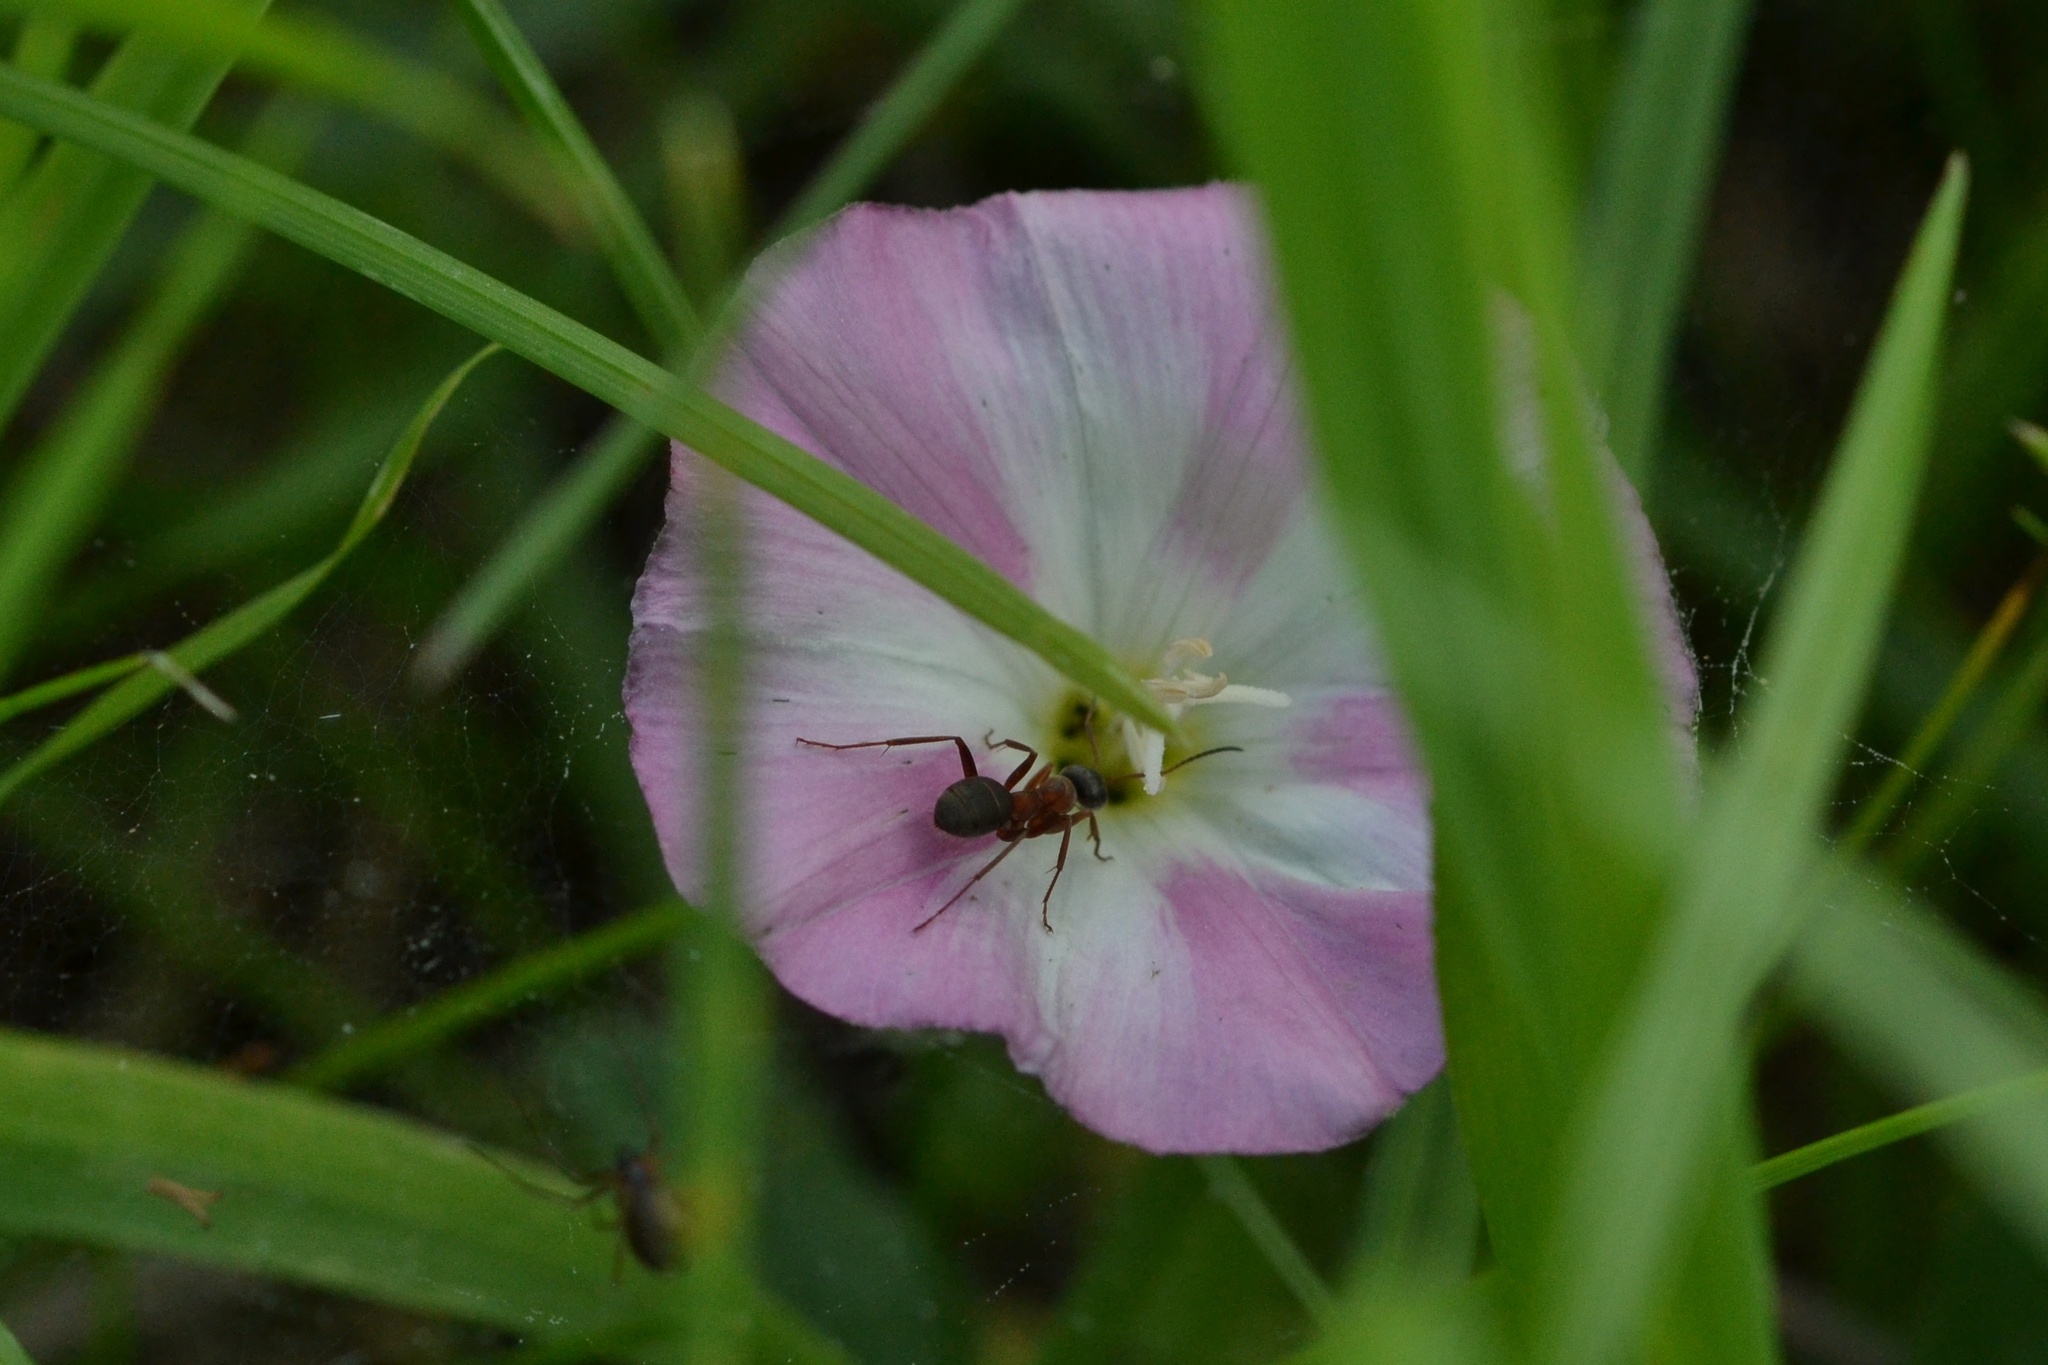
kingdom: Plantae
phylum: Tracheophyta
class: Magnoliopsida
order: Solanales
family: Convolvulaceae
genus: Convolvulus
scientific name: Convolvulus arvensis
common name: Field bindweed
